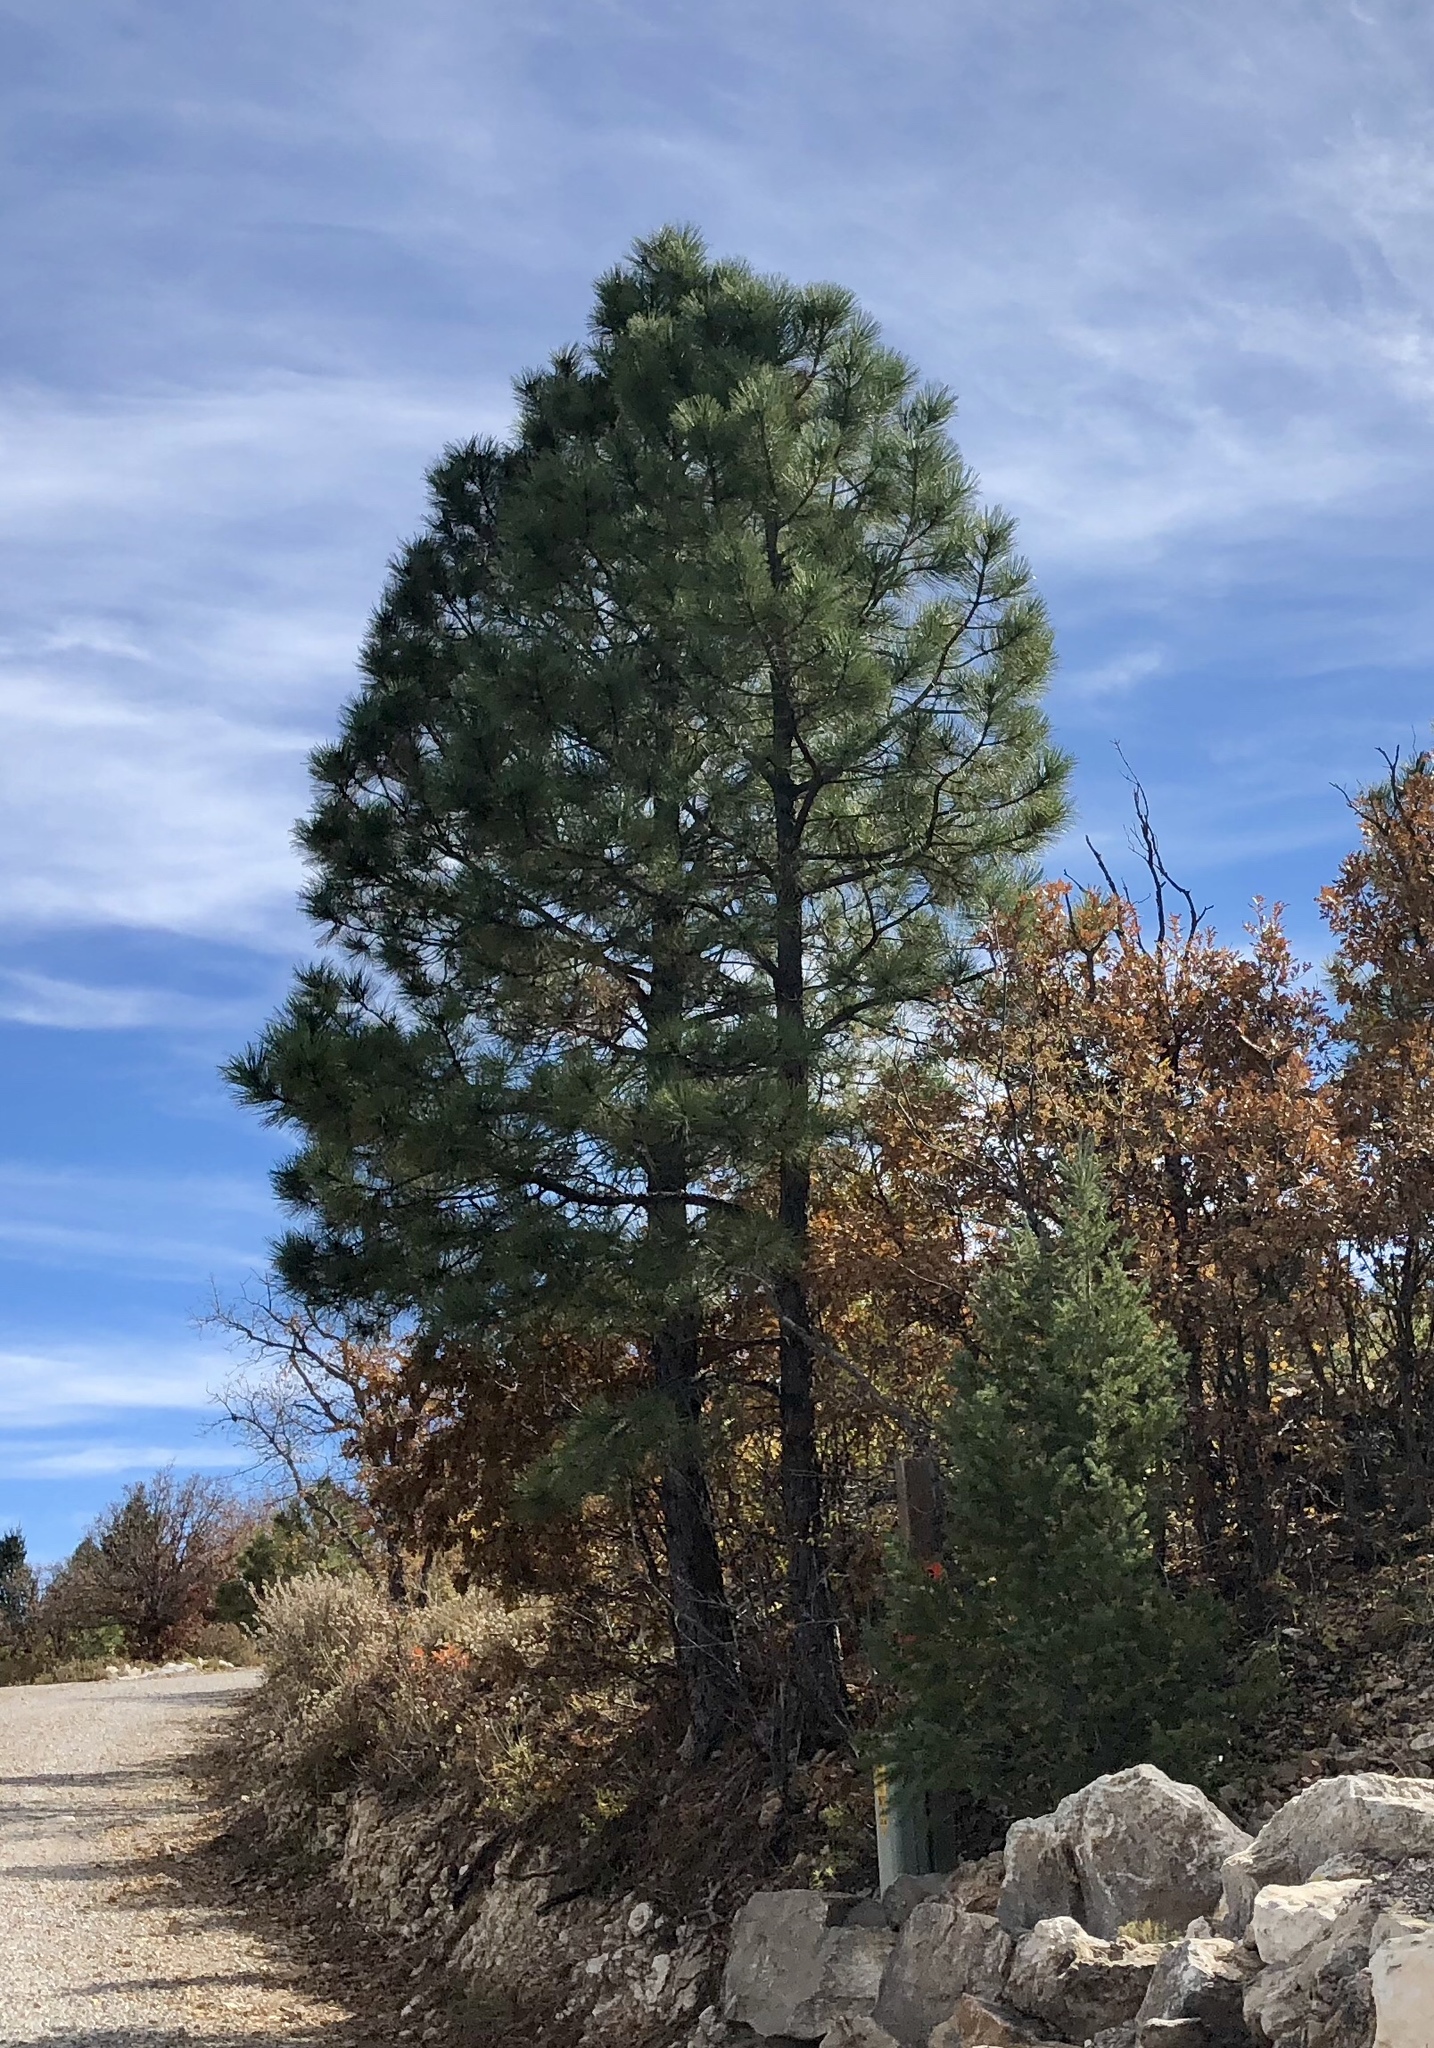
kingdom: Plantae
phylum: Tracheophyta
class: Pinopsida
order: Pinales
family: Pinaceae
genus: Pinus
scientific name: Pinus ponderosa
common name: Western yellow-pine
